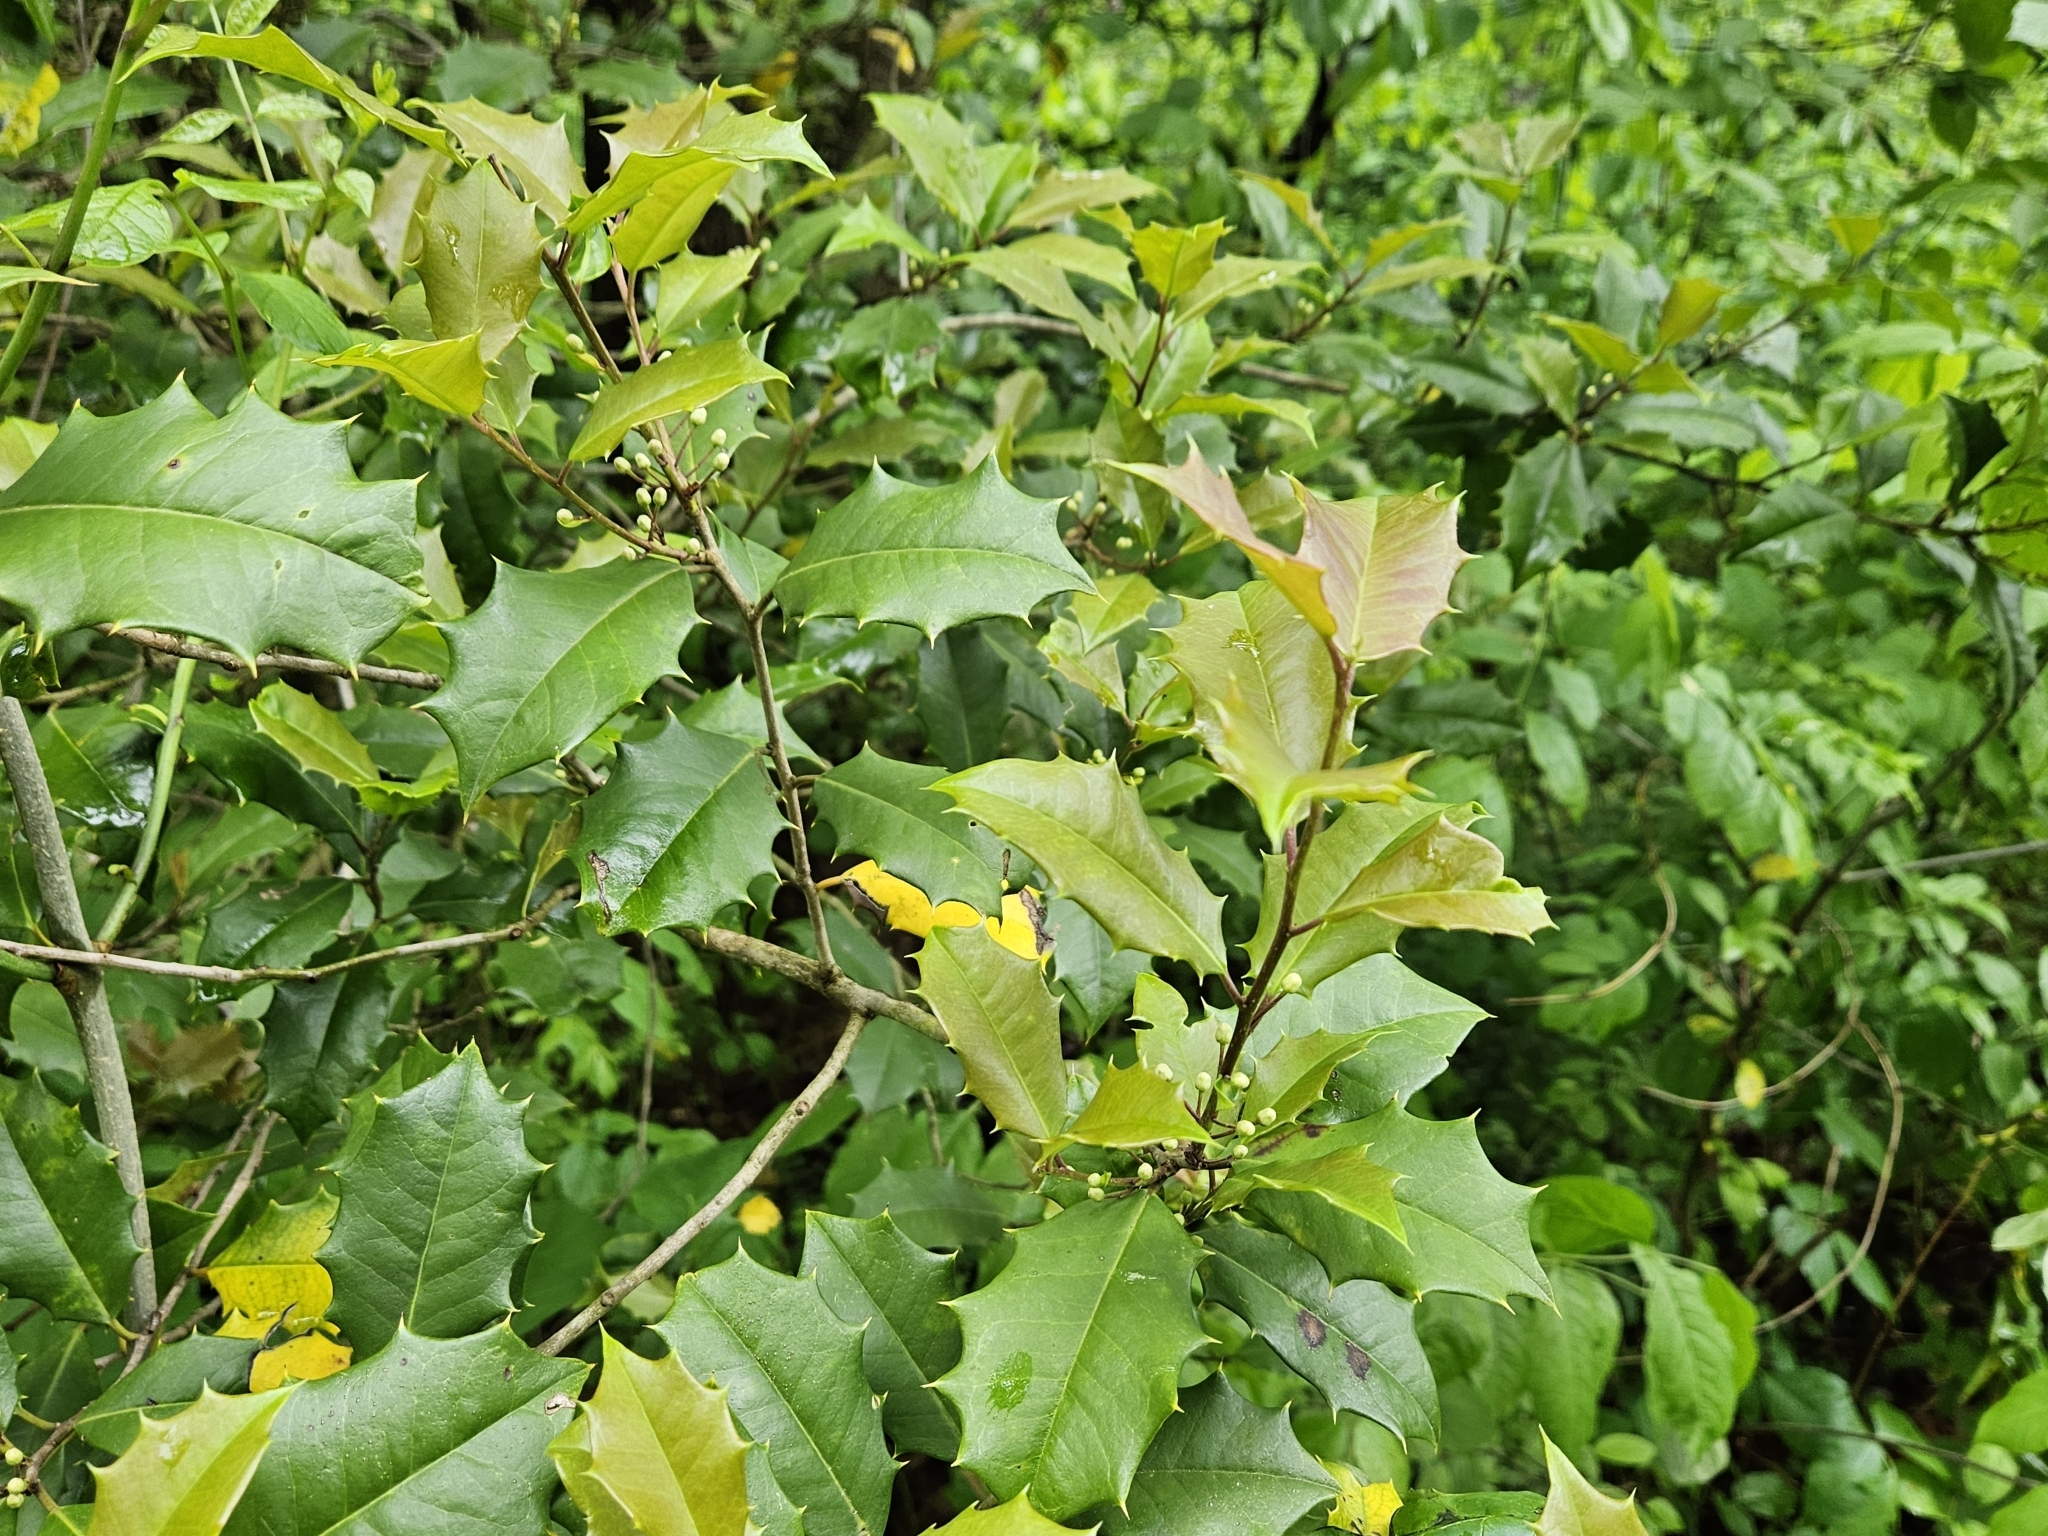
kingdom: Plantae
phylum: Tracheophyta
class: Magnoliopsida
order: Aquifoliales
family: Aquifoliaceae
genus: Ilex
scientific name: Ilex opaca
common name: American holly
